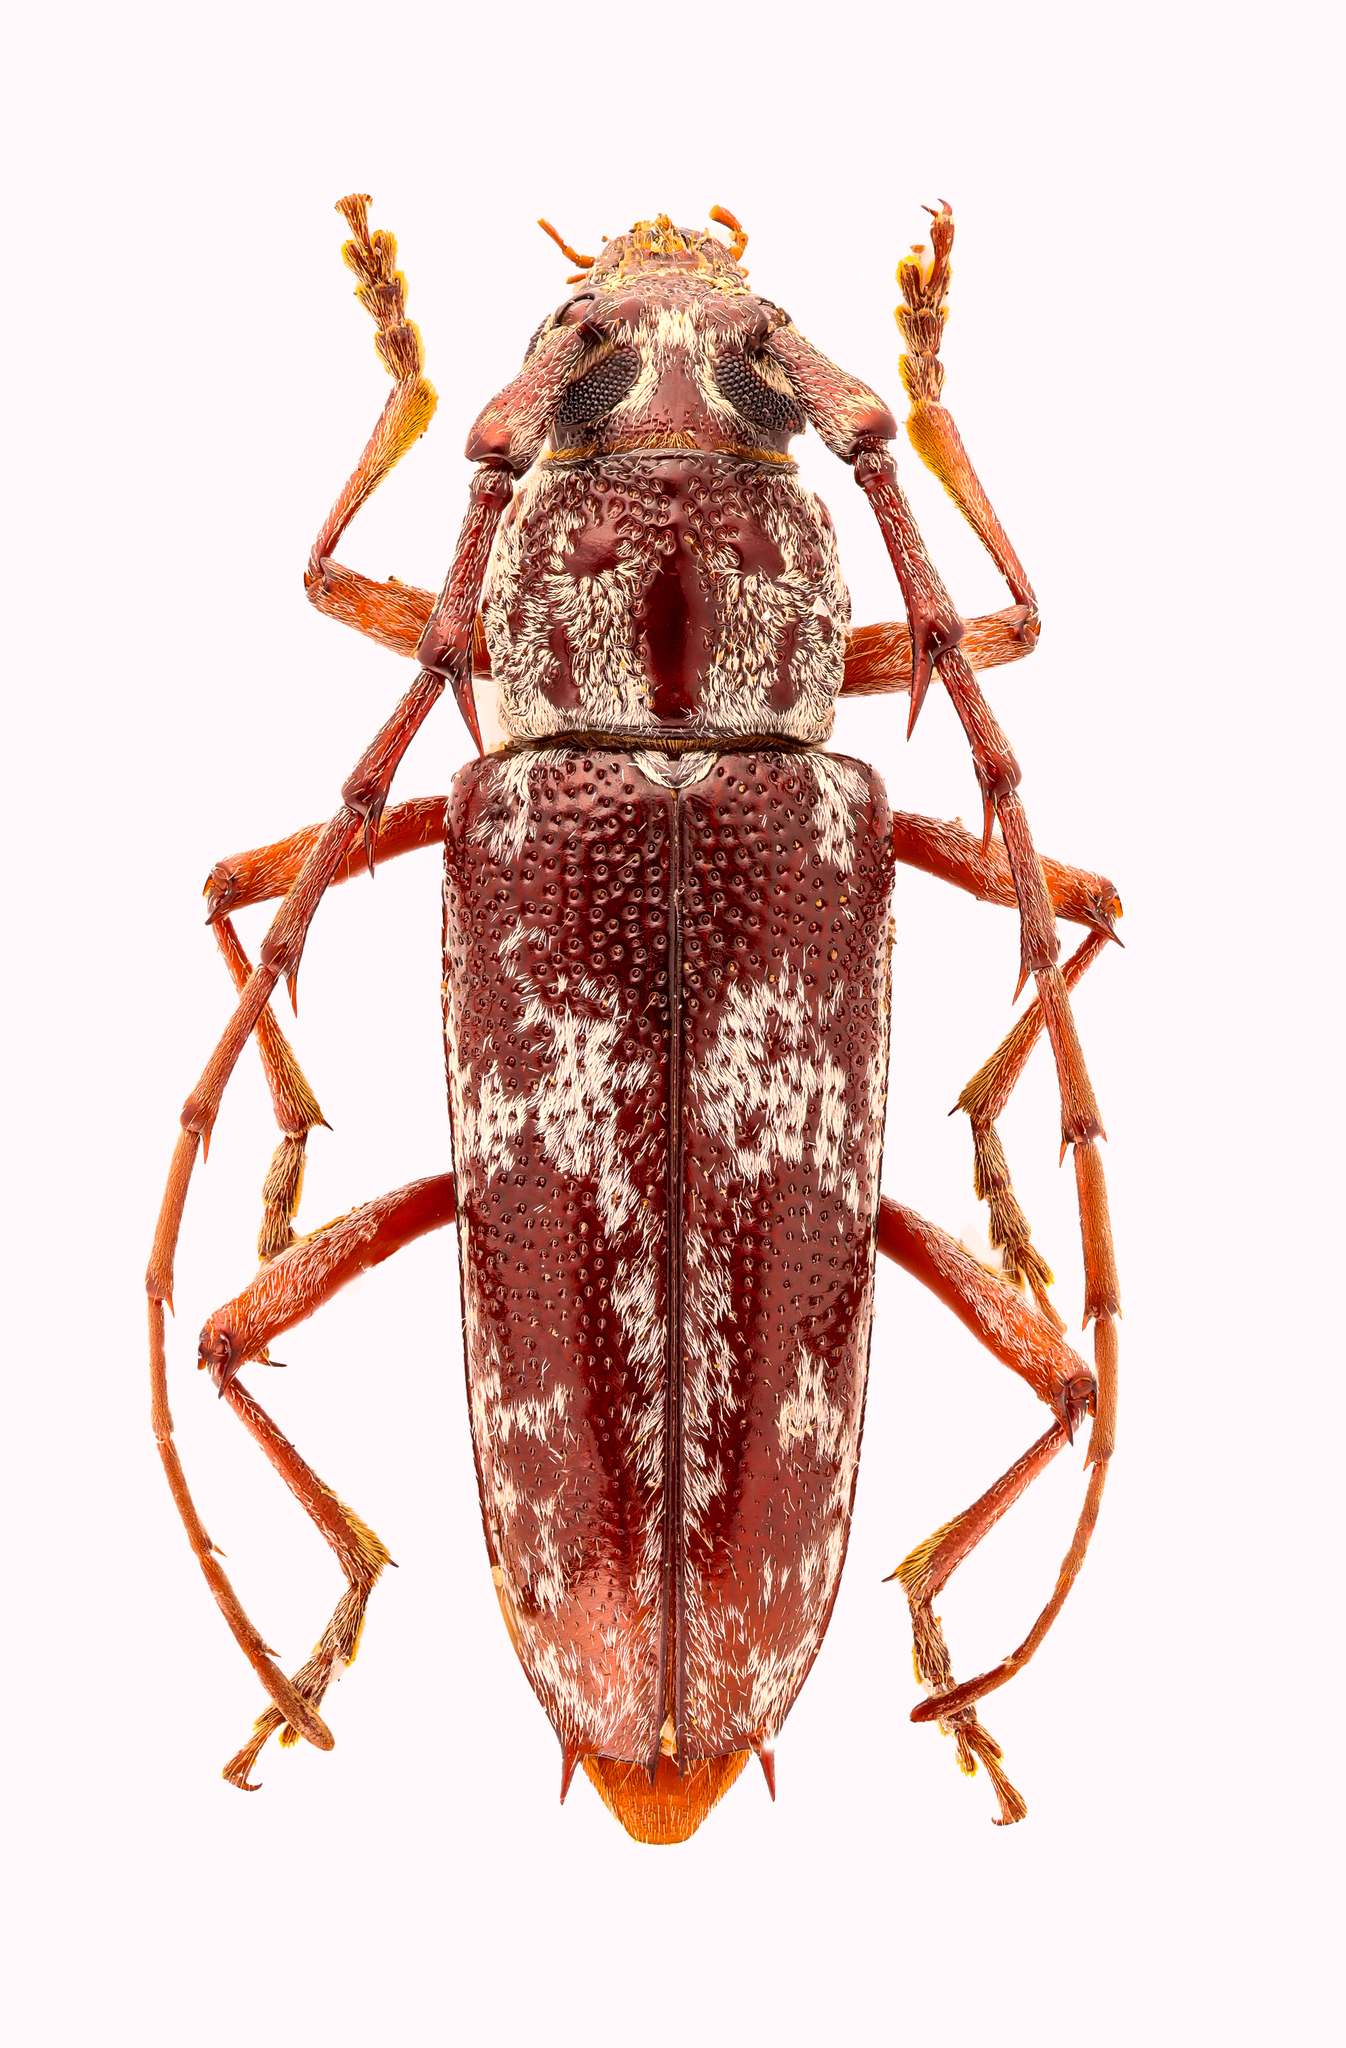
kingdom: Animalia
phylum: Arthropoda
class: Insecta
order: Coleoptera
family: Cerambycidae
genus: Elaphidion
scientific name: Elaphidion irroratum
